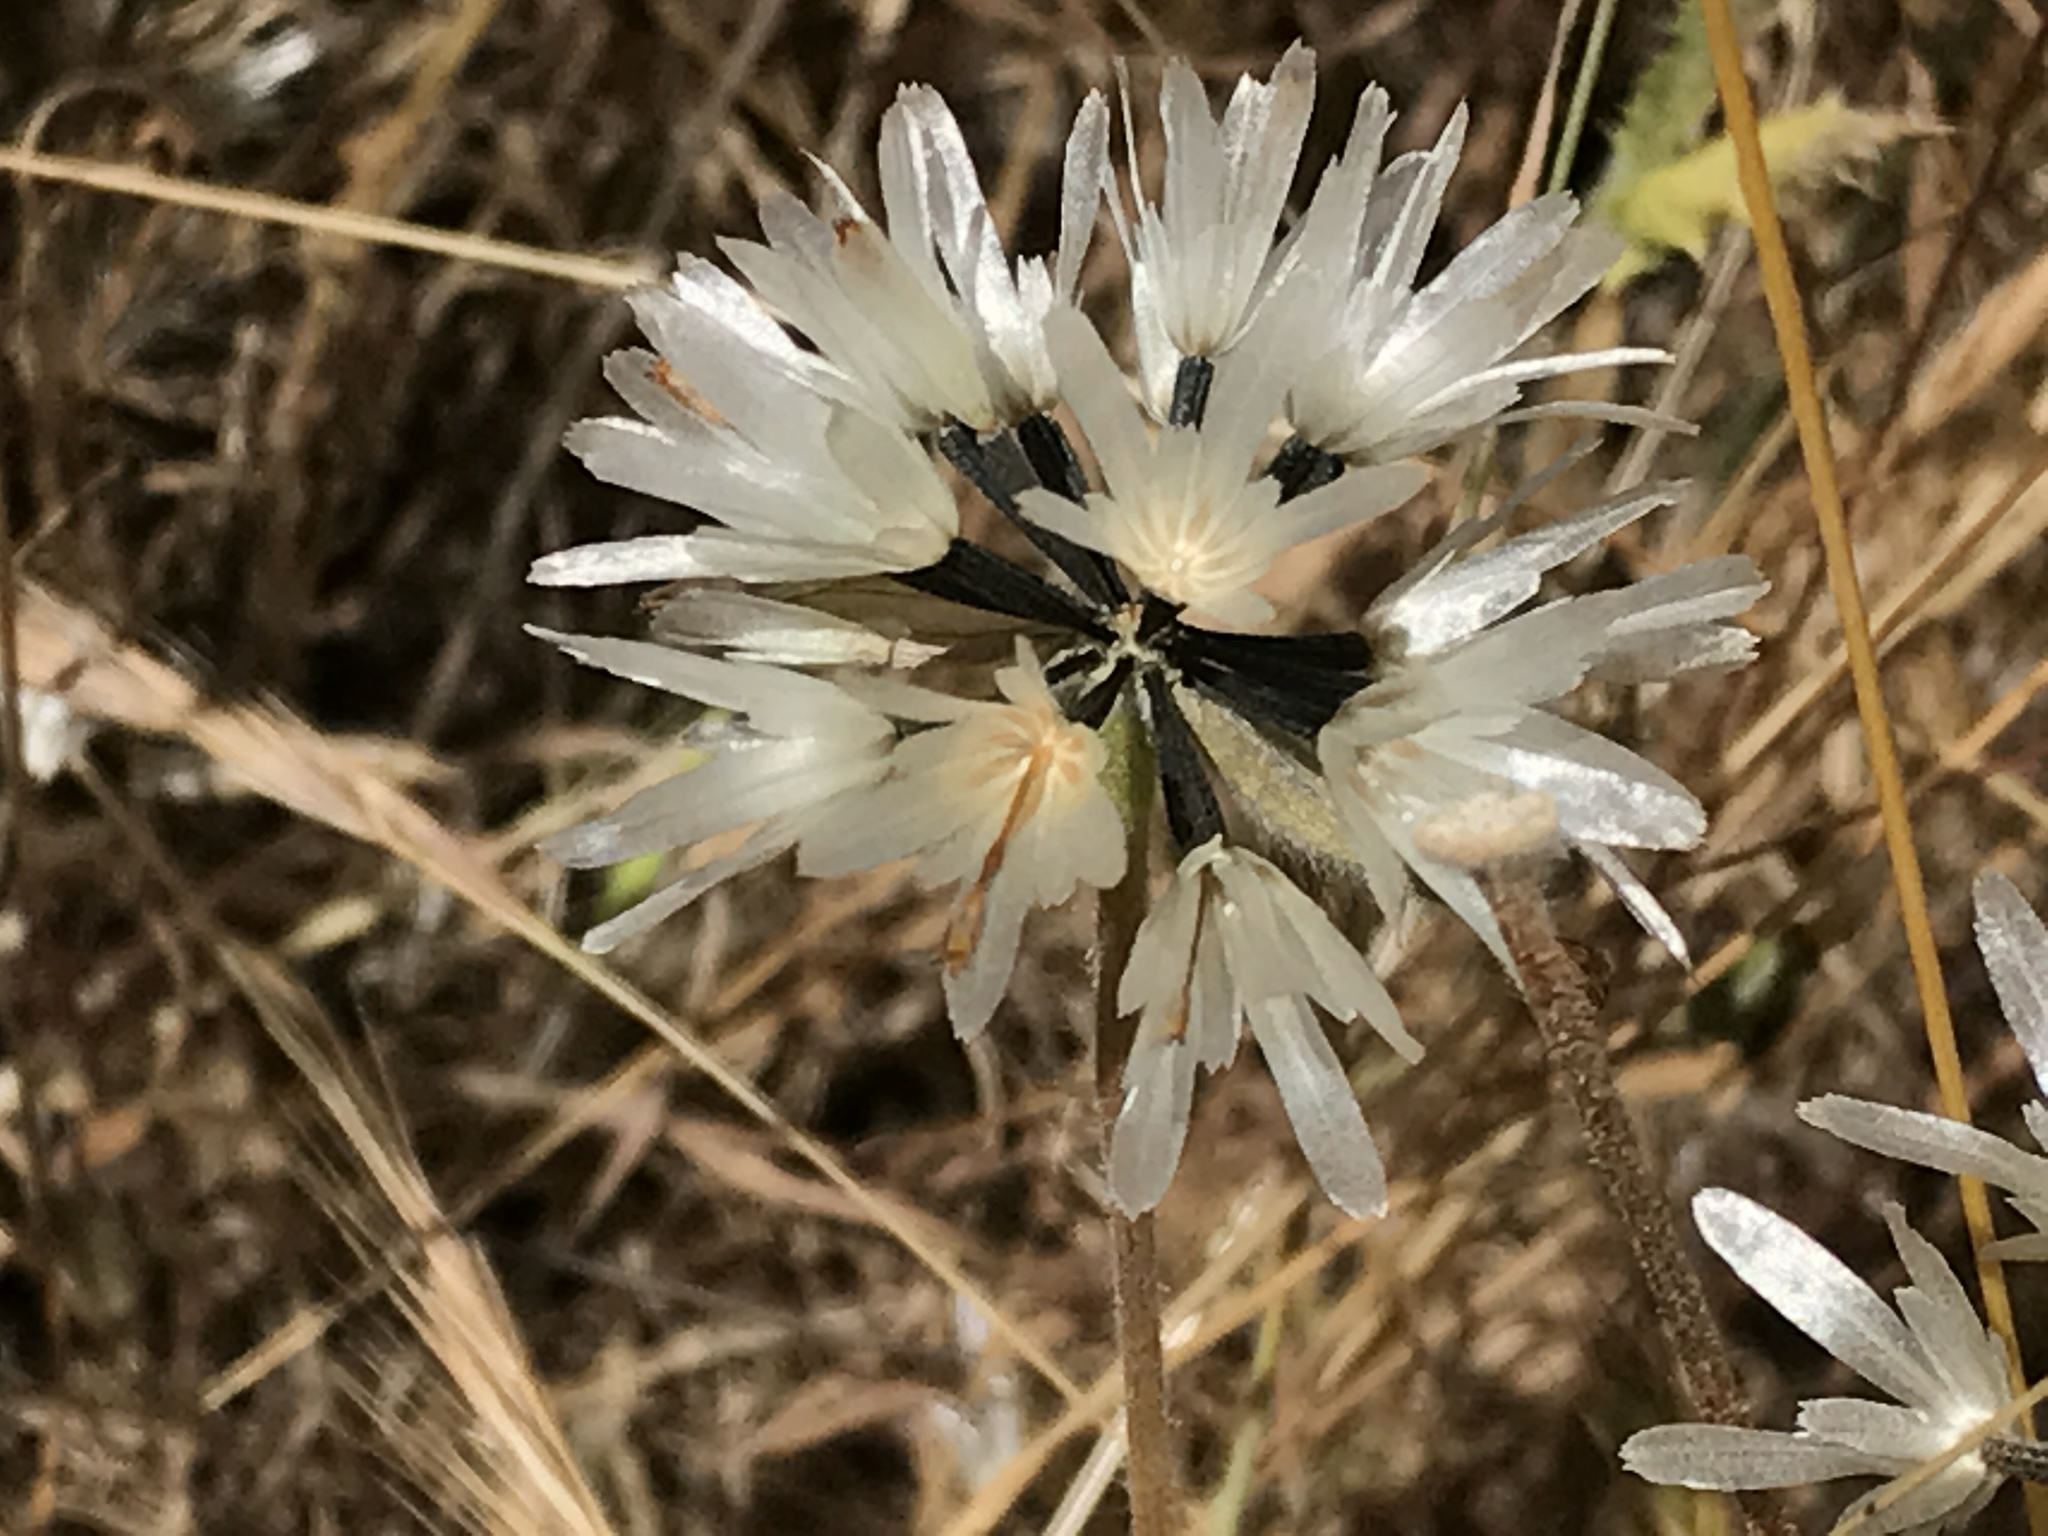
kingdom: Plantae
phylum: Tracheophyta
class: Magnoliopsida
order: Asterales
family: Asteraceae
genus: Achyrachaena
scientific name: Achyrachaena mollis
